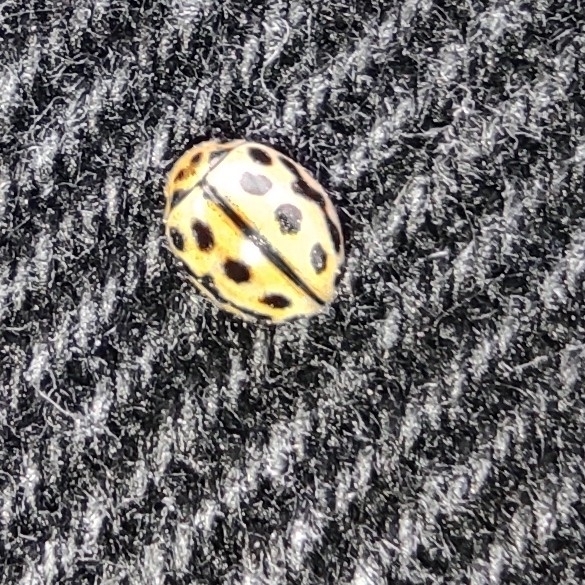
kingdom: Animalia
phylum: Arthropoda
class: Insecta
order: Coleoptera
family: Coccinellidae
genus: Tytthaspis
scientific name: Tytthaspis sedecimpunctata
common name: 16-spot ladybird
